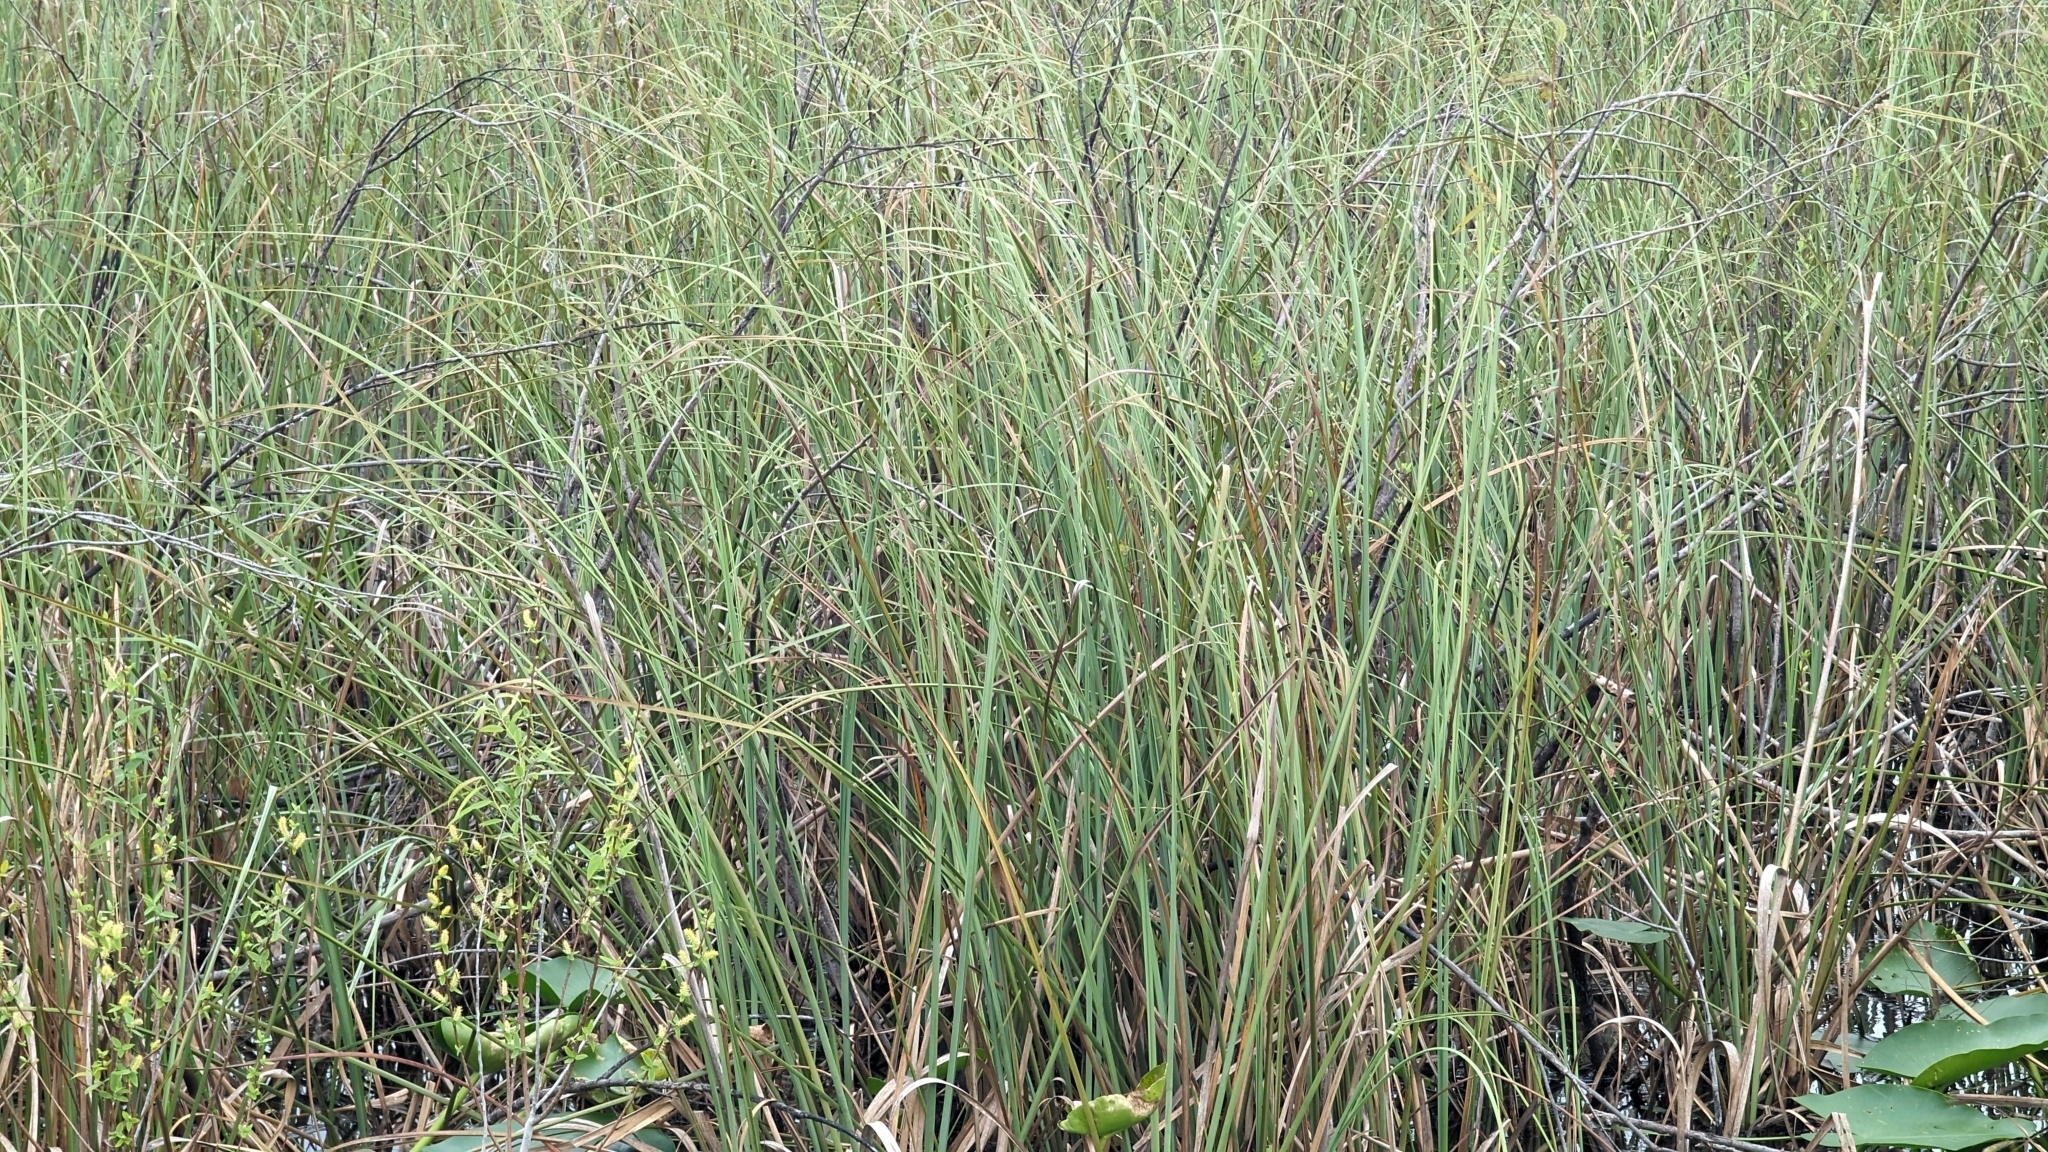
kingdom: Plantae
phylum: Tracheophyta
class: Liliopsida
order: Poales
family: Cyperaceae
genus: Cladium
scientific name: Cladium mariscus
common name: Great fen-sedge
